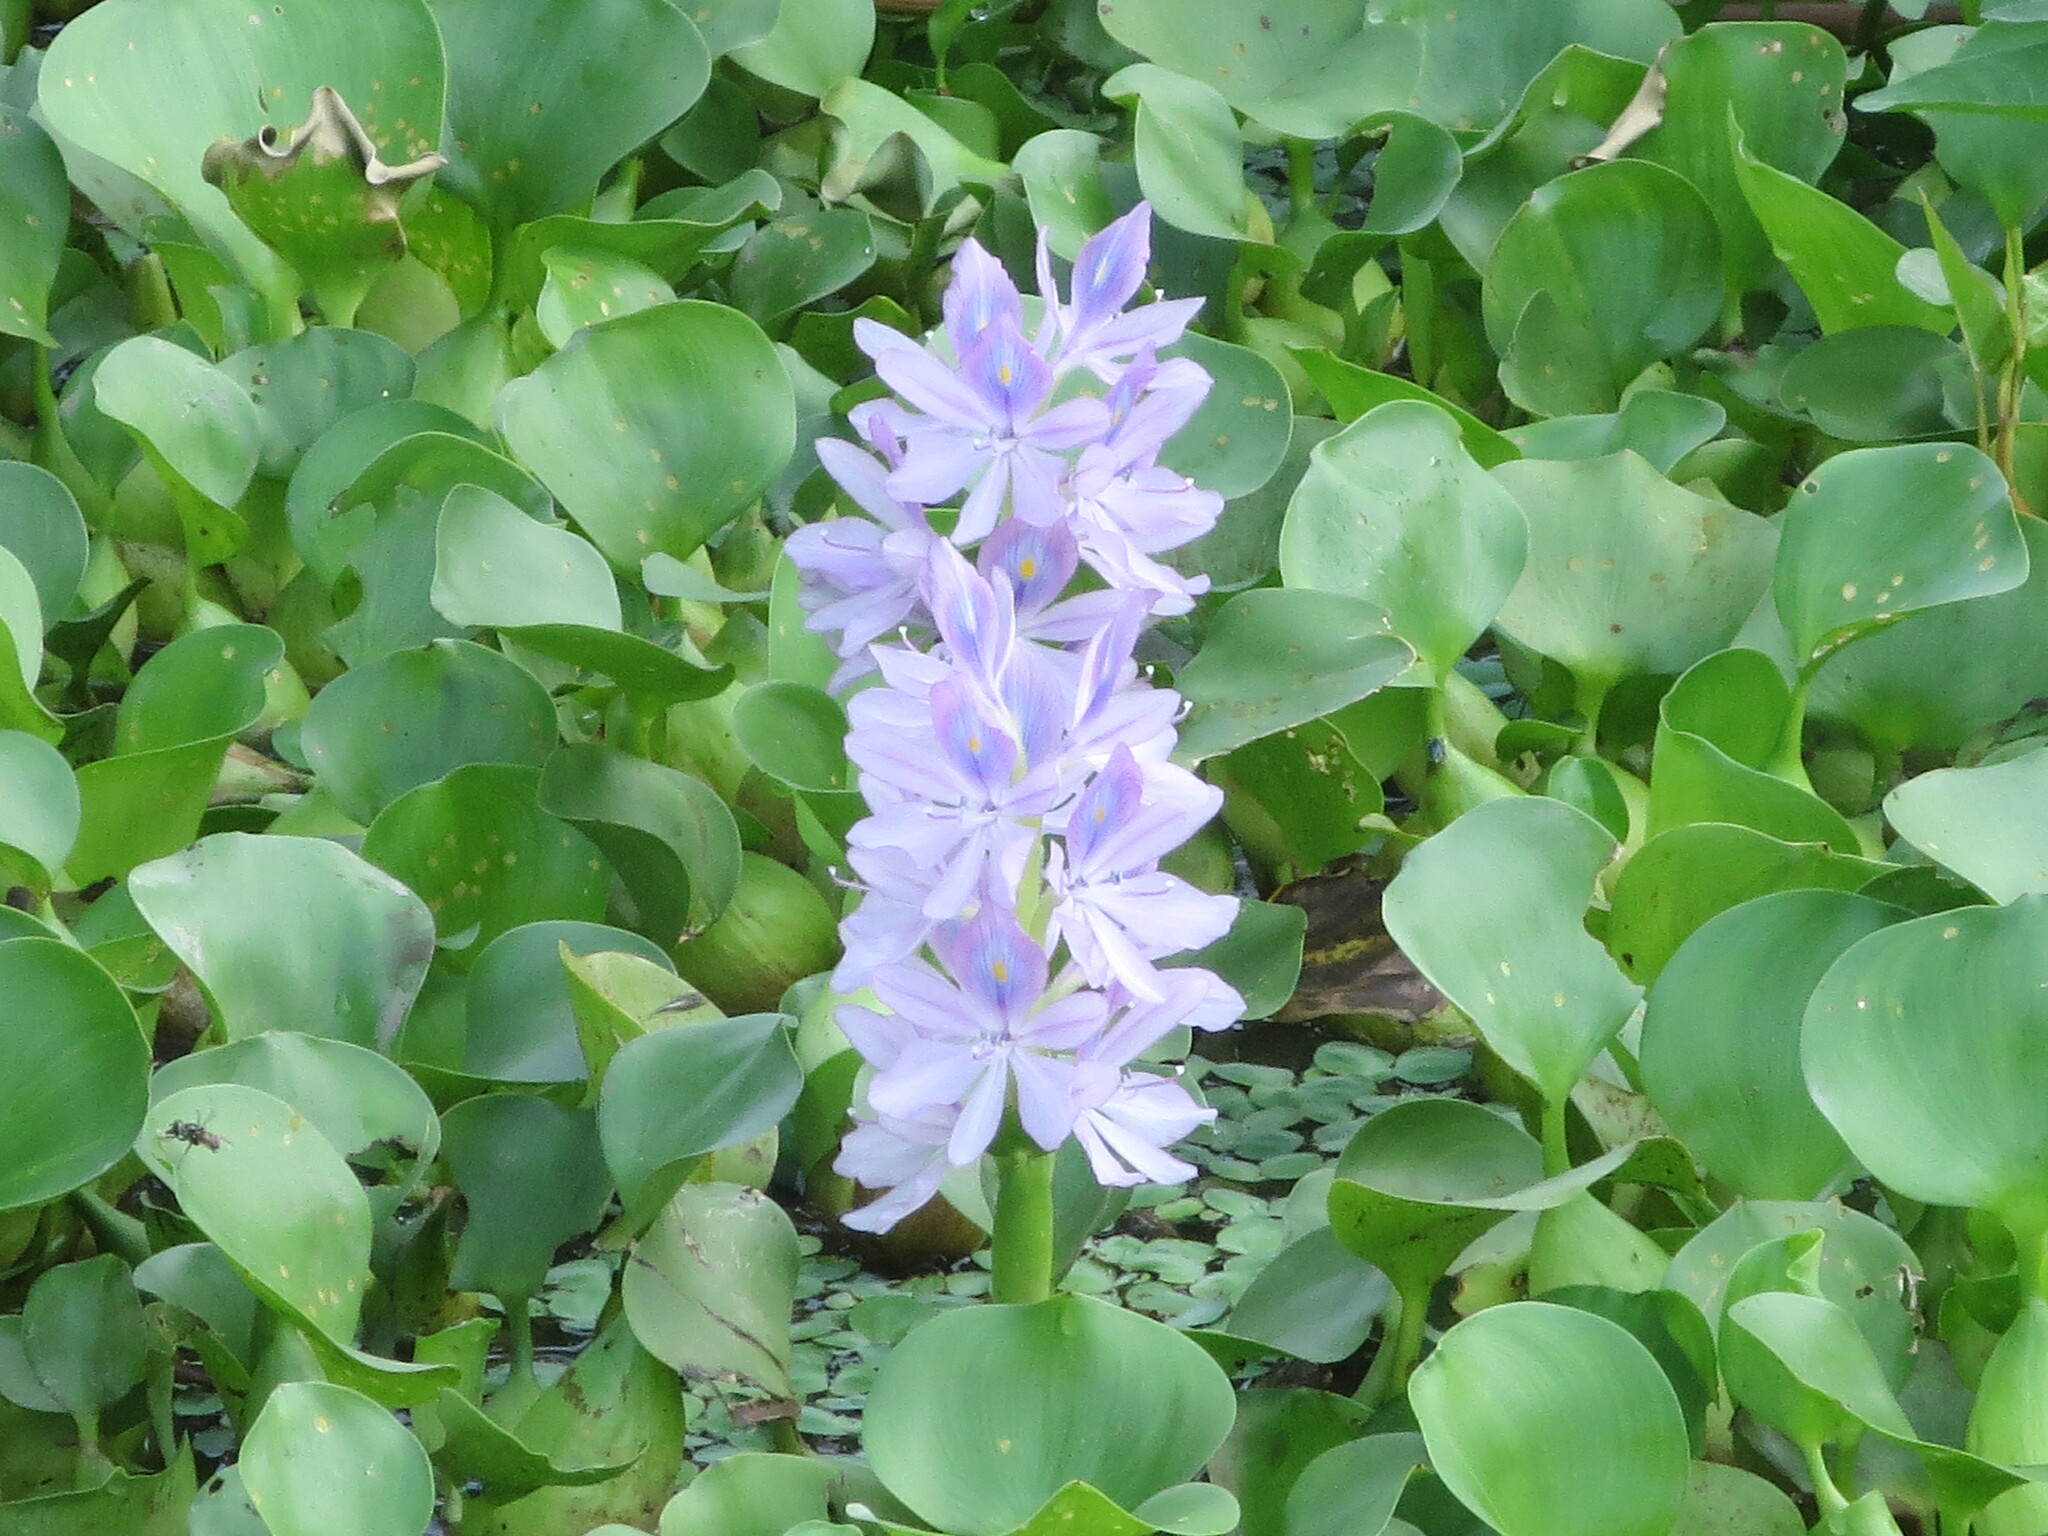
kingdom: Plantae
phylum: Tracheophyta
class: Liliopsida
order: Commelinales
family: Pontederiaceae
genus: Pontederia
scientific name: Pontederia crassipes
